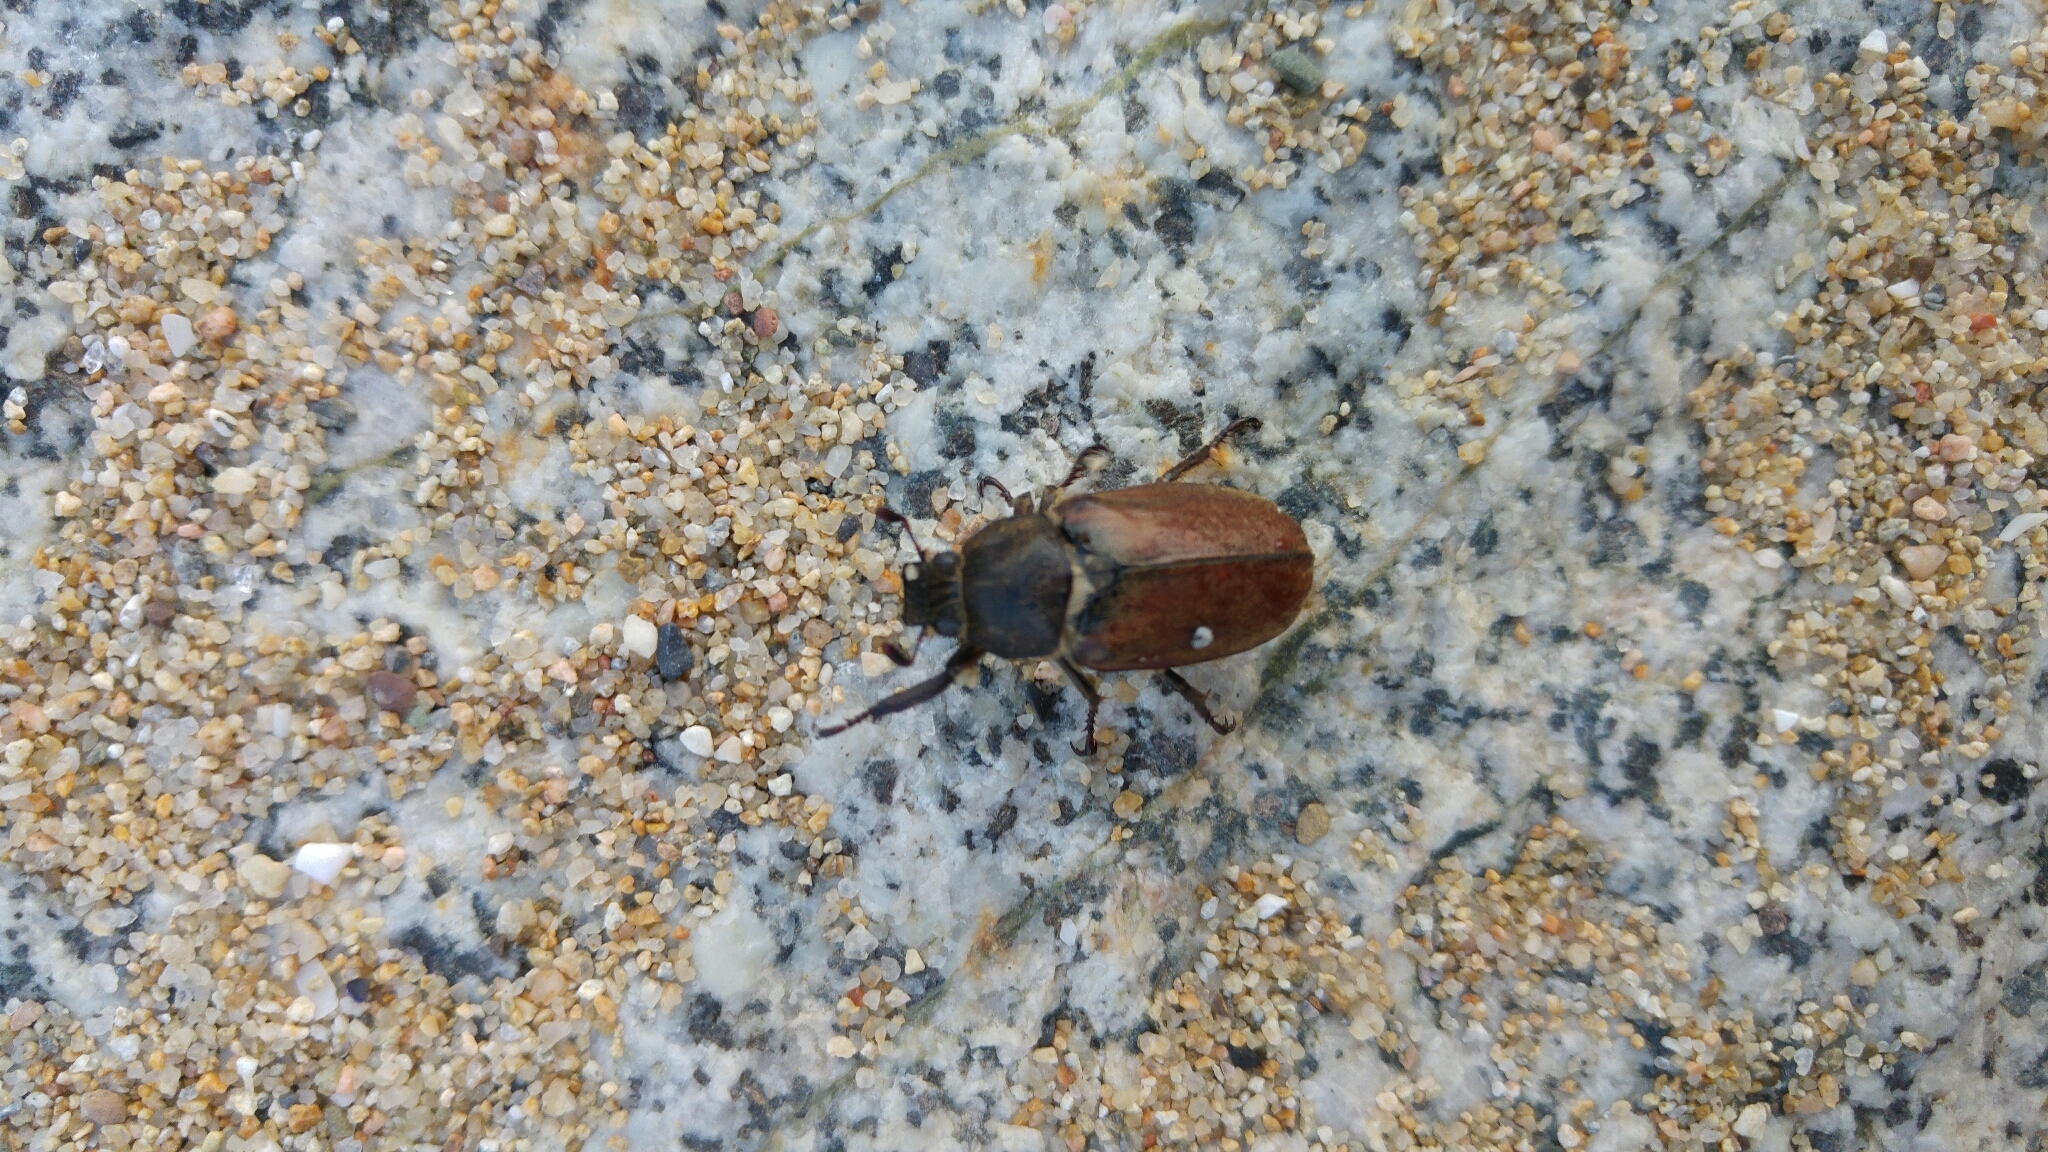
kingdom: Animalia
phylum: Arthropoda
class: Insecta
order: Coleoptera
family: Scarabaeidae
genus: Anoxia
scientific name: Anoxia villosa
